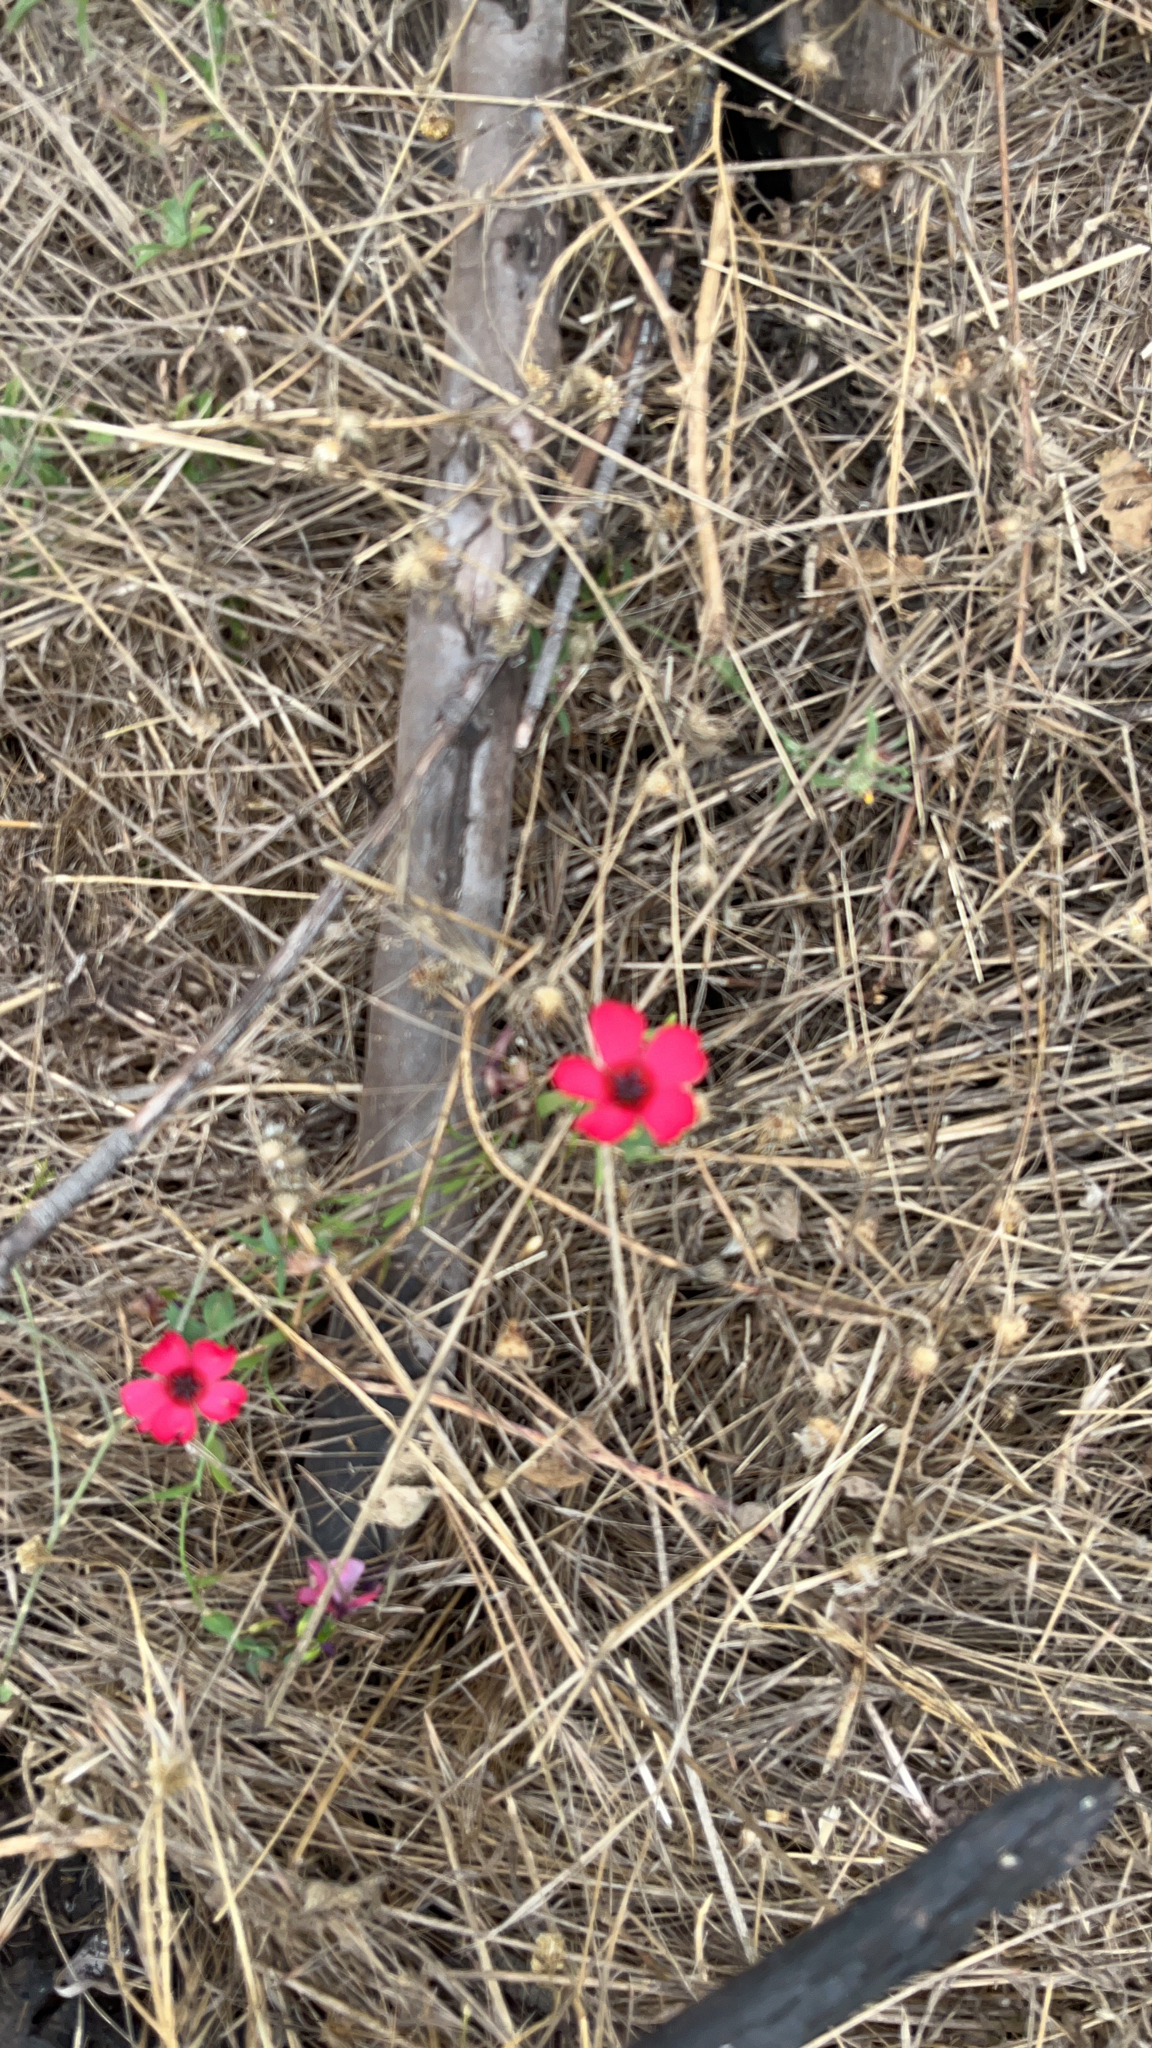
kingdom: Plantae
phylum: Tracheophyta
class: Magnoliopsida
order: Malpighiales
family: Linaceae
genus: Linum
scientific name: Linum grandiflorum
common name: Crimson flax
